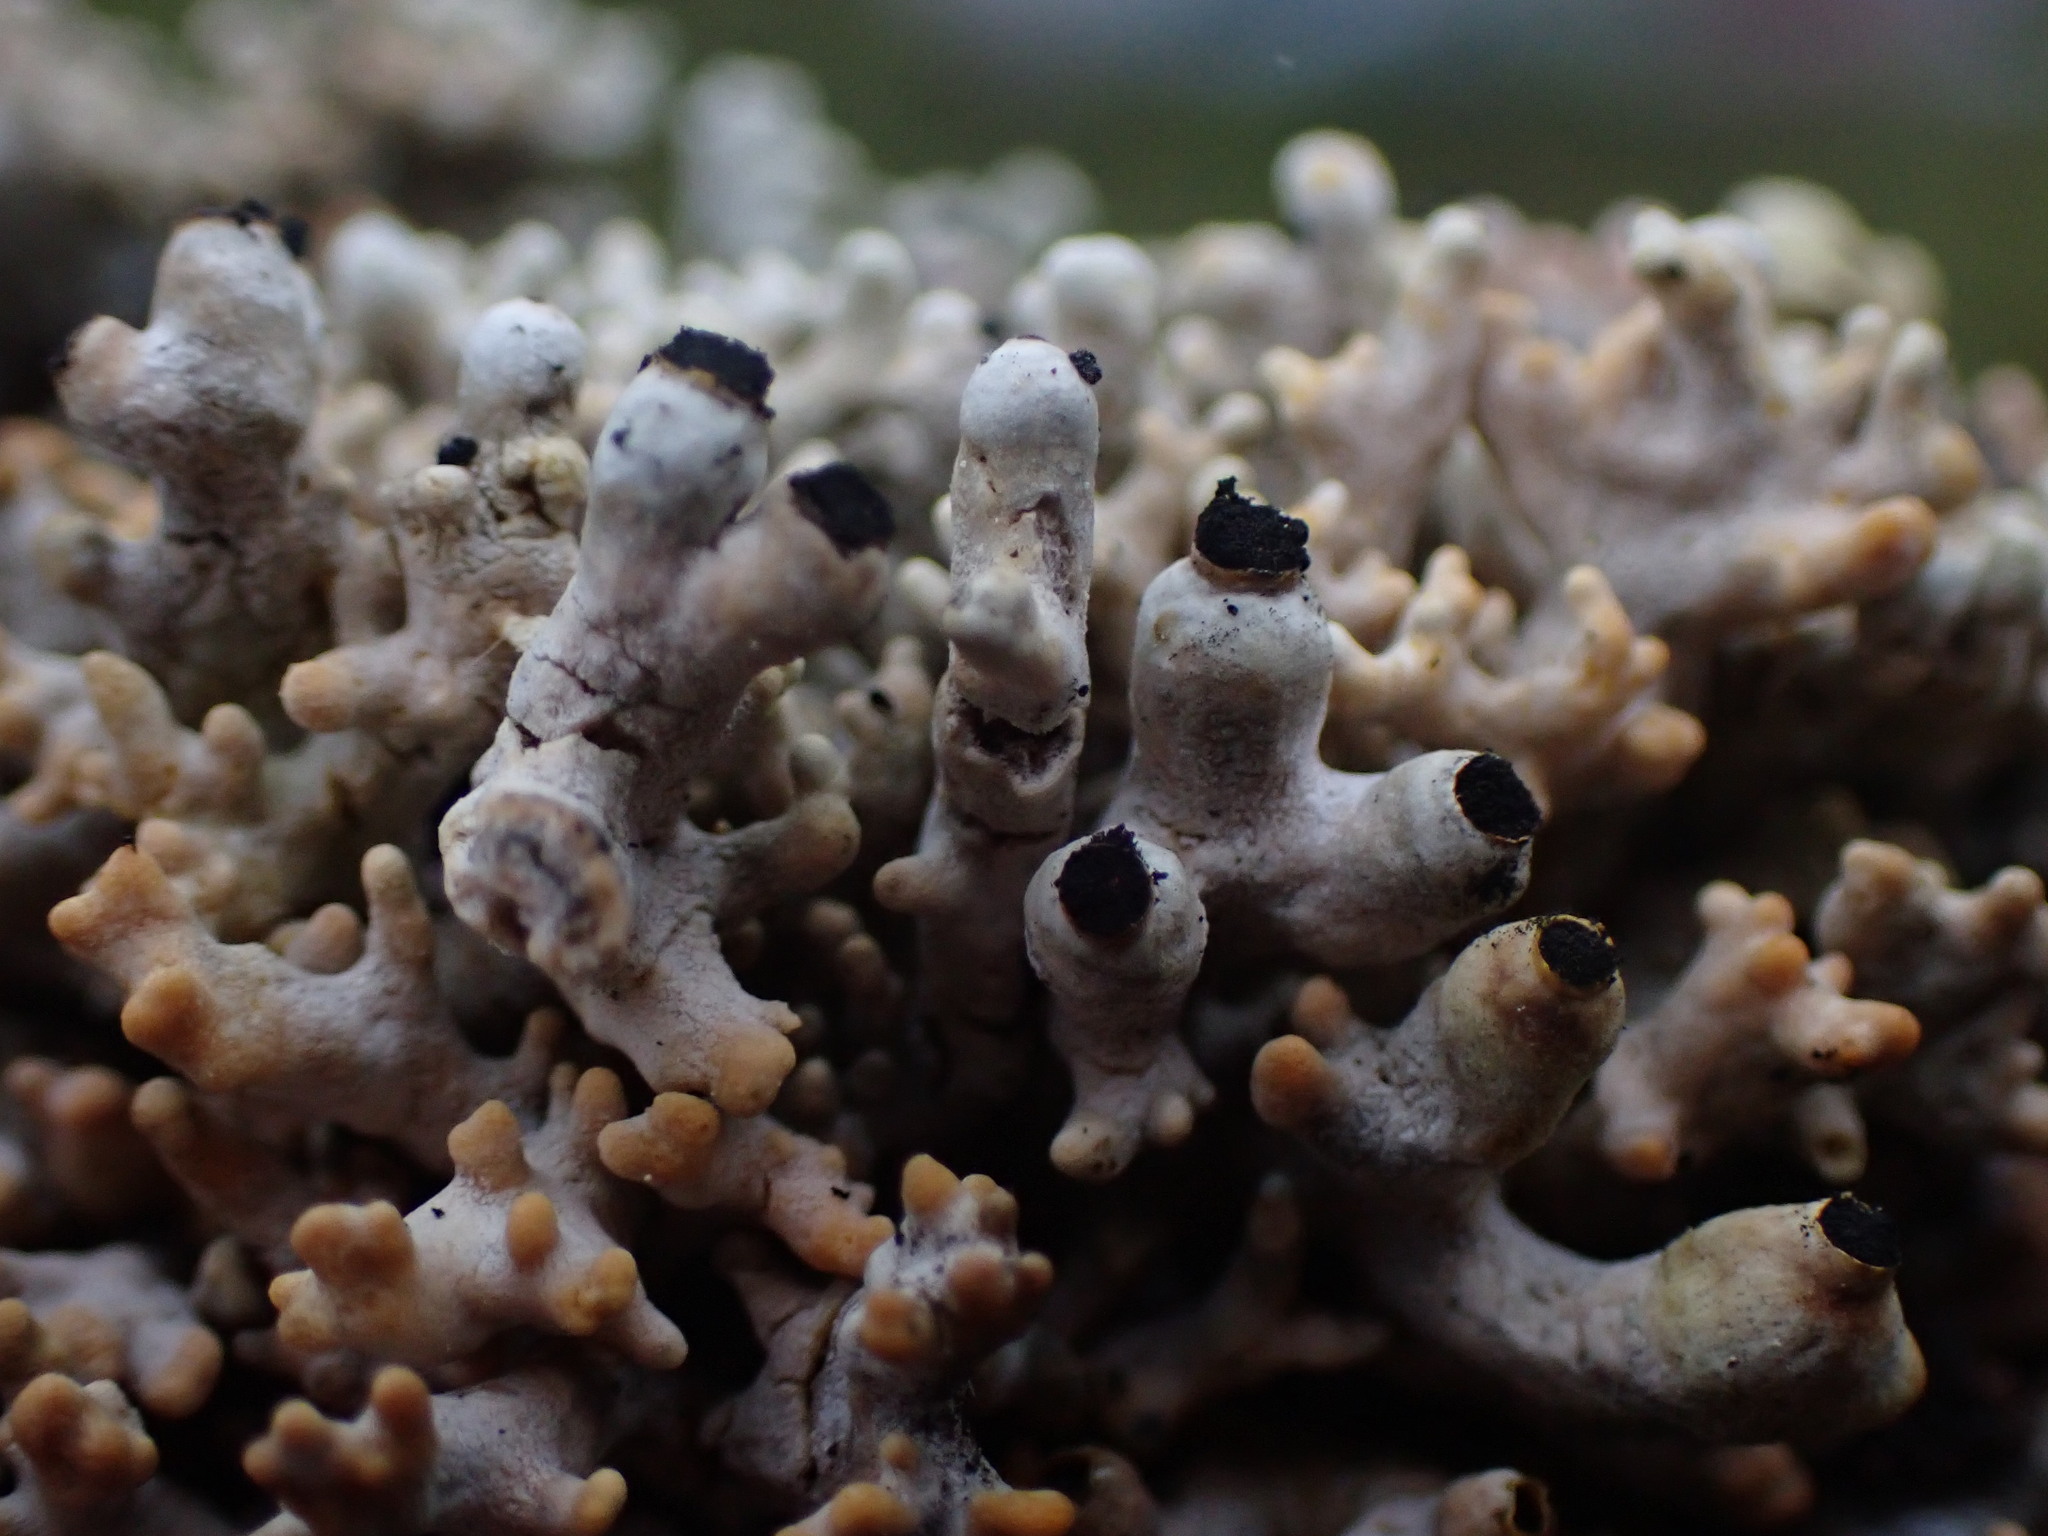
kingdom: Fungi
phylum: Ascomycota
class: Lecanoromycetes
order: Caliciales
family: Caliciaceae
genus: Acroscyphus
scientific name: Acroscyphus sphaerophoroides
